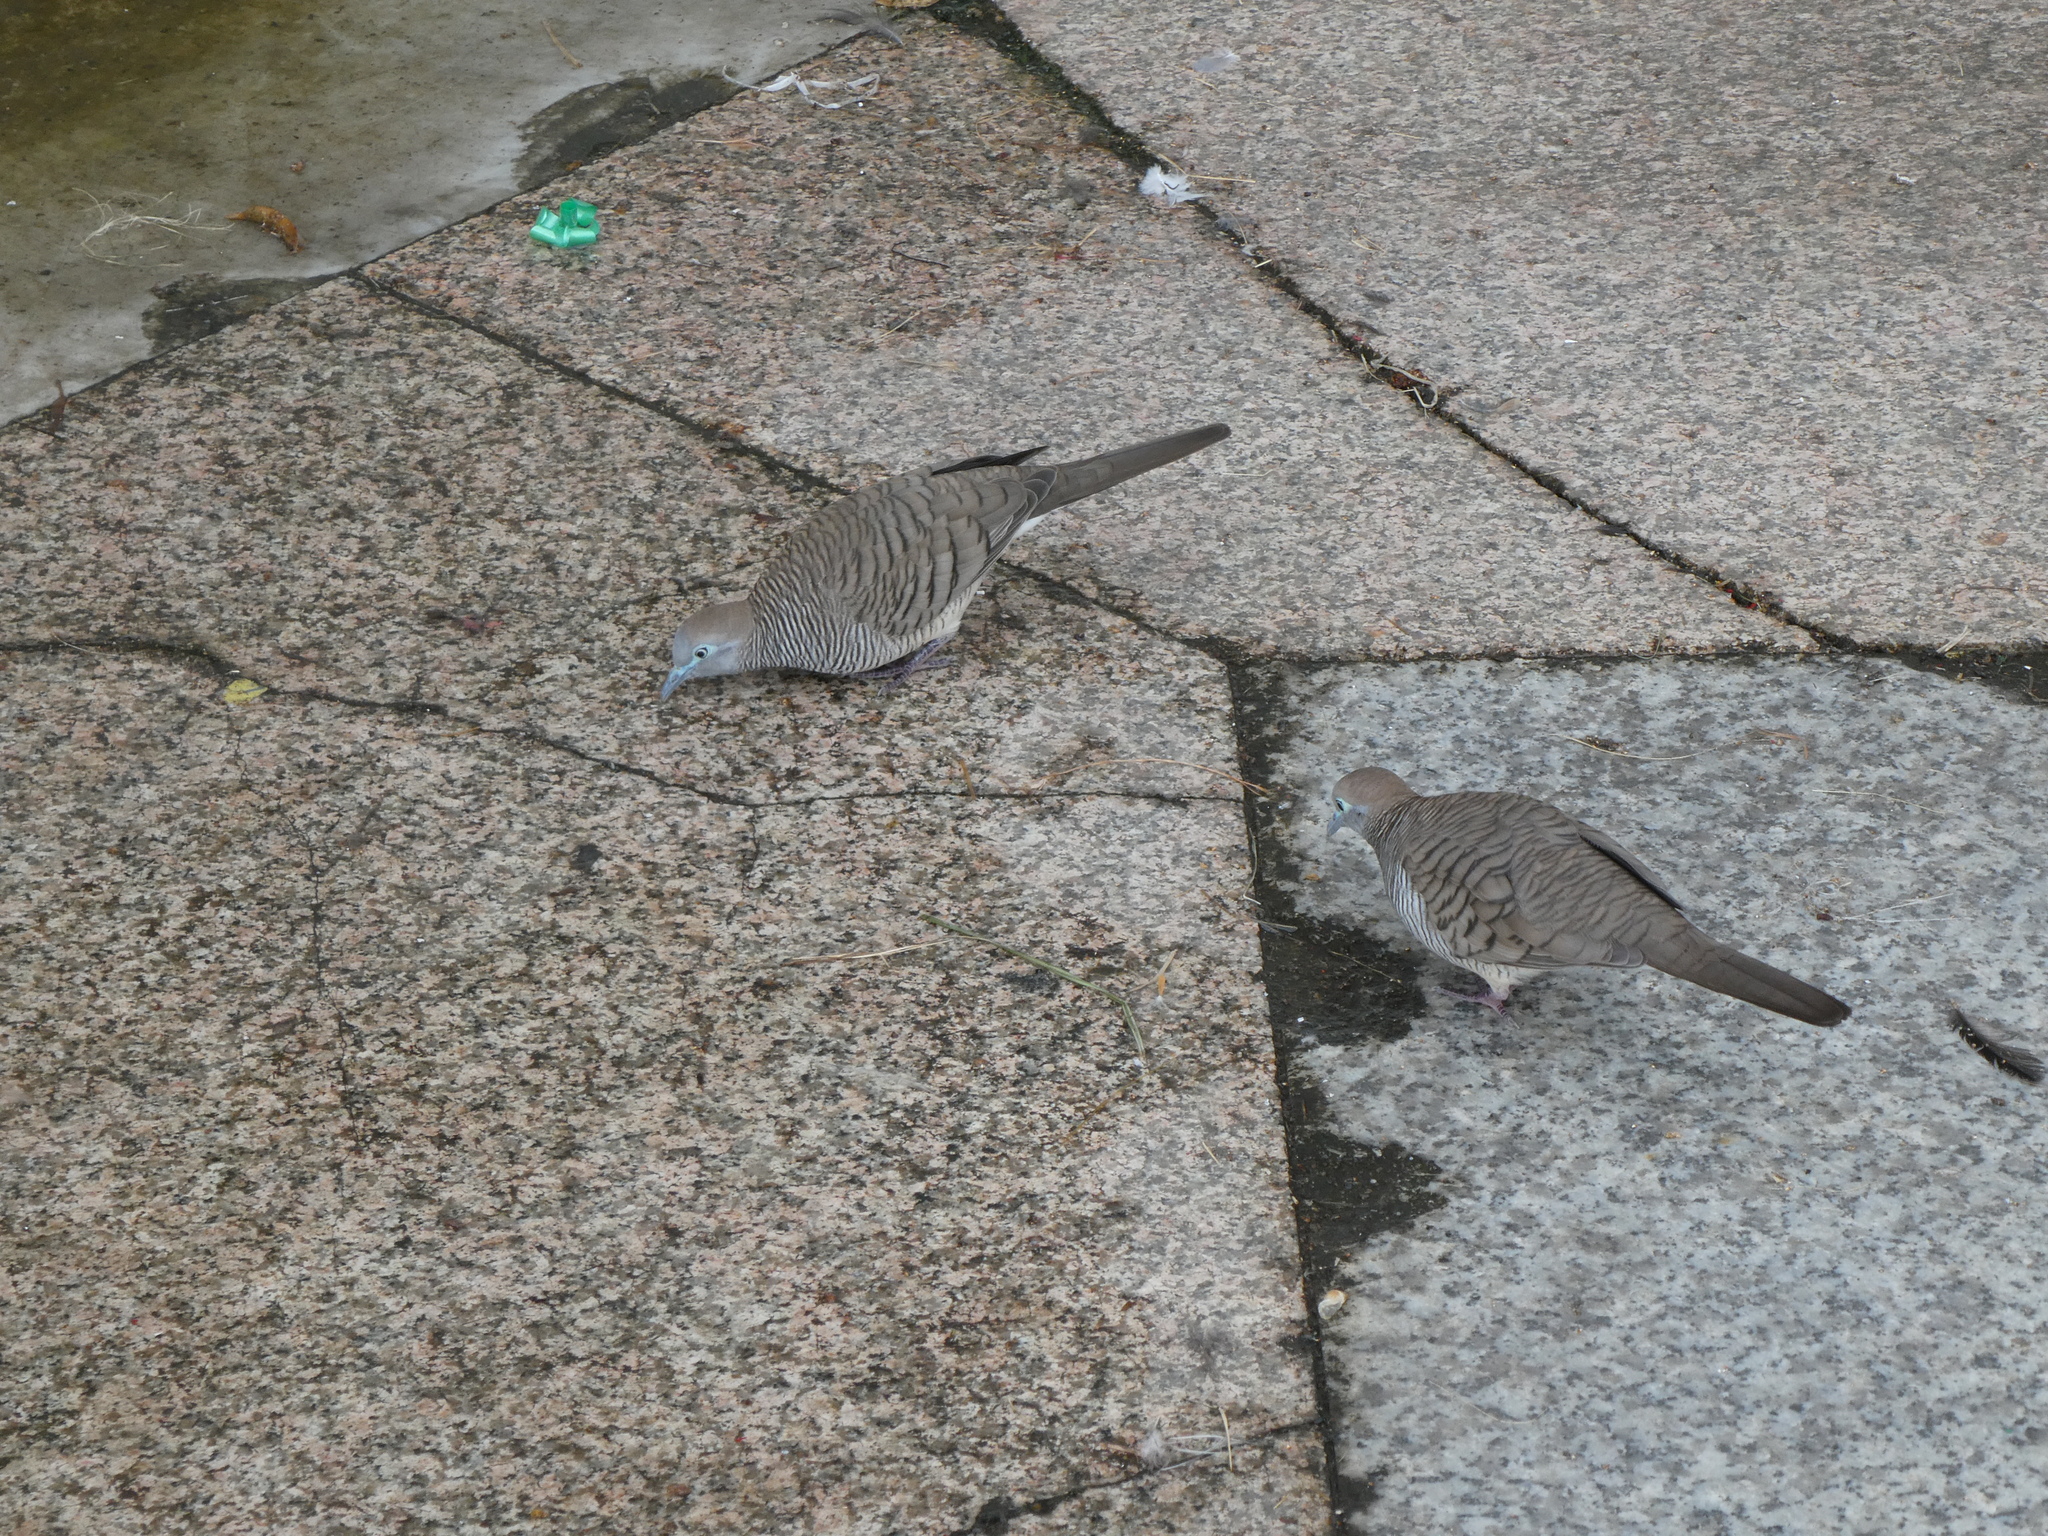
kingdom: Animalia
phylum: Chordata
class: Aves
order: Columbiformes
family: Columbidae
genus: Geopelia
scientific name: Geopelia striata
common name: Zebra dove
